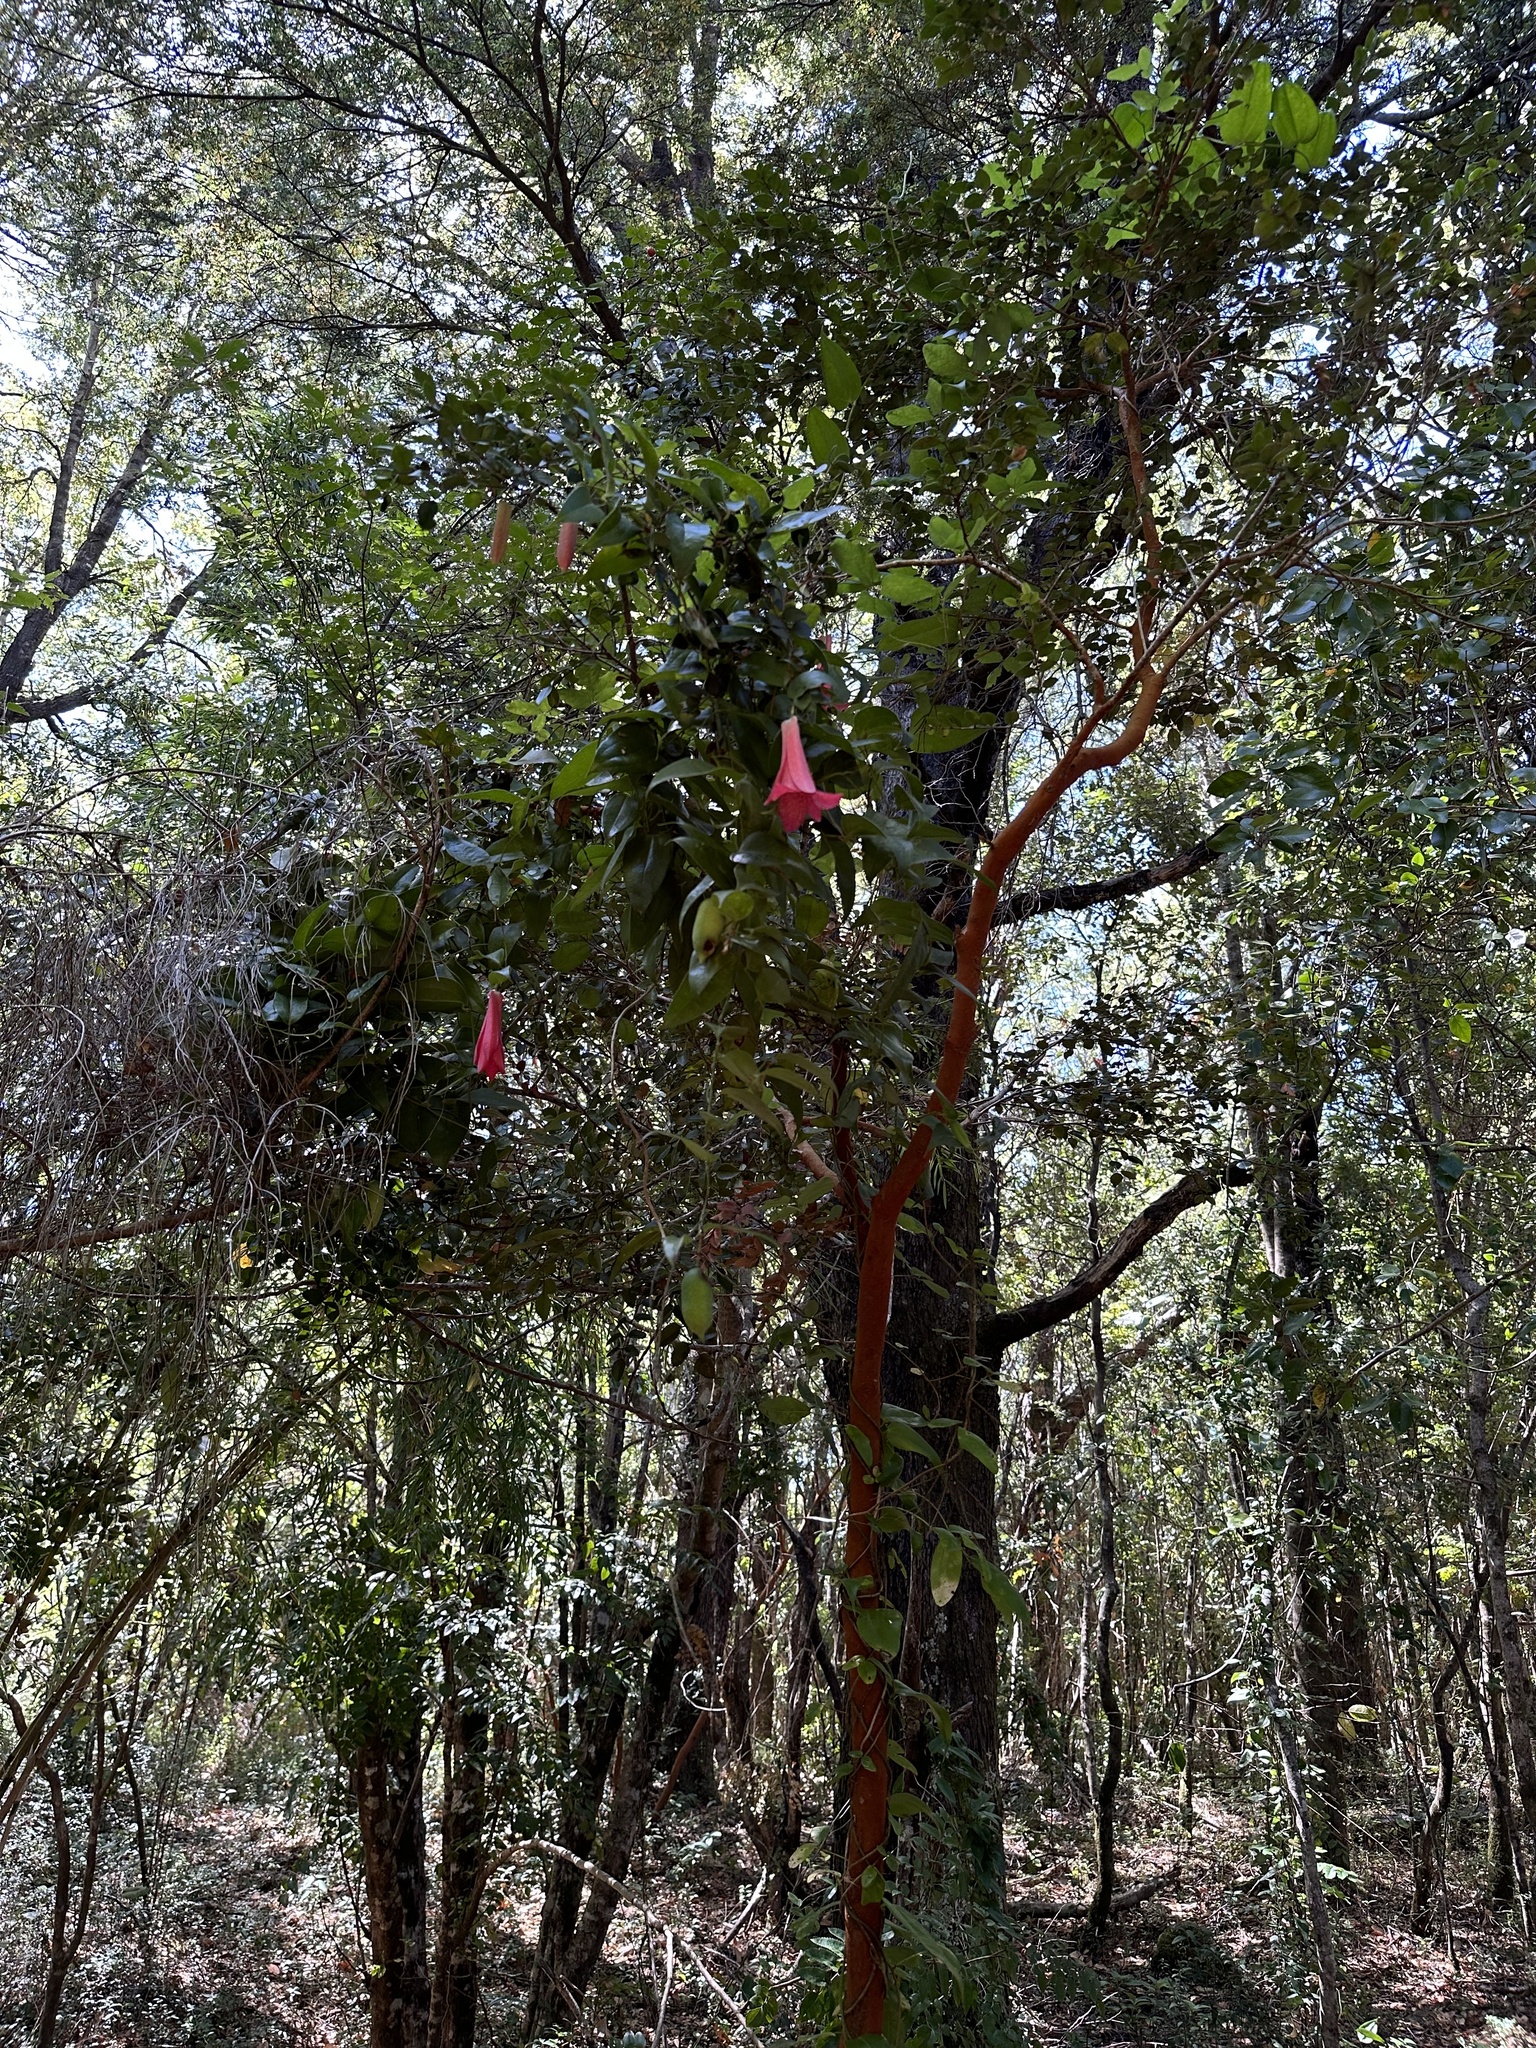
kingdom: Plantae
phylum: Tracheophyta
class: Liliopsida
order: Liliales
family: Philesiaceae
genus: Lapageria
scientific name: Lapageria rosea
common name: Chilean-bellflower
